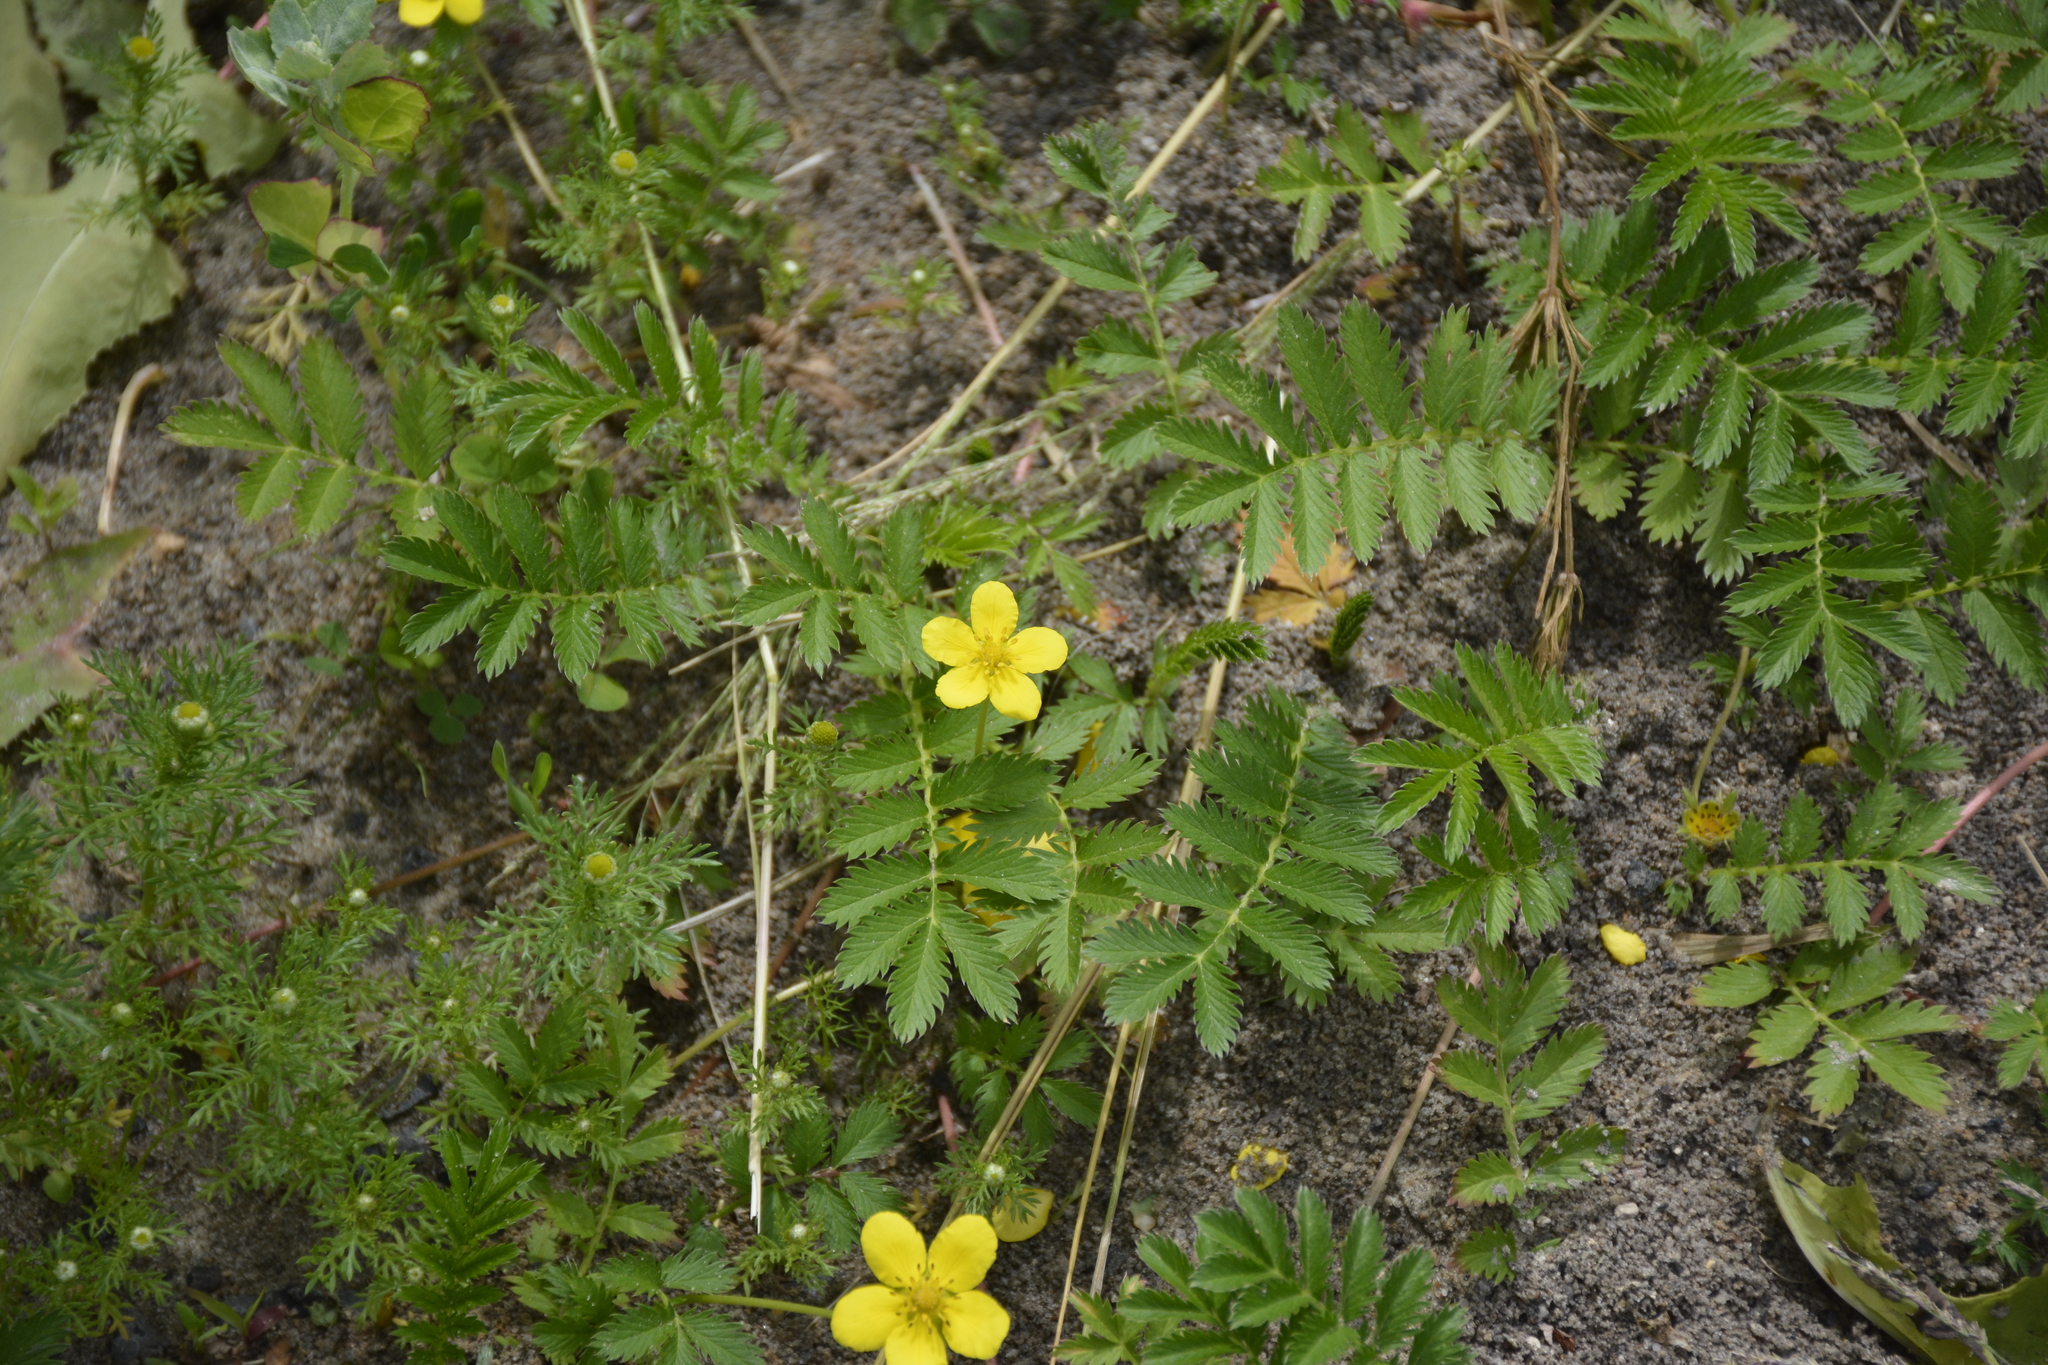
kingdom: Plantae
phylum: Tracheophyta
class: Magnoliopsida
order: Rosales
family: Rosaceae
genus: Argentina
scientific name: Argentina anserina
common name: Common silverweed
